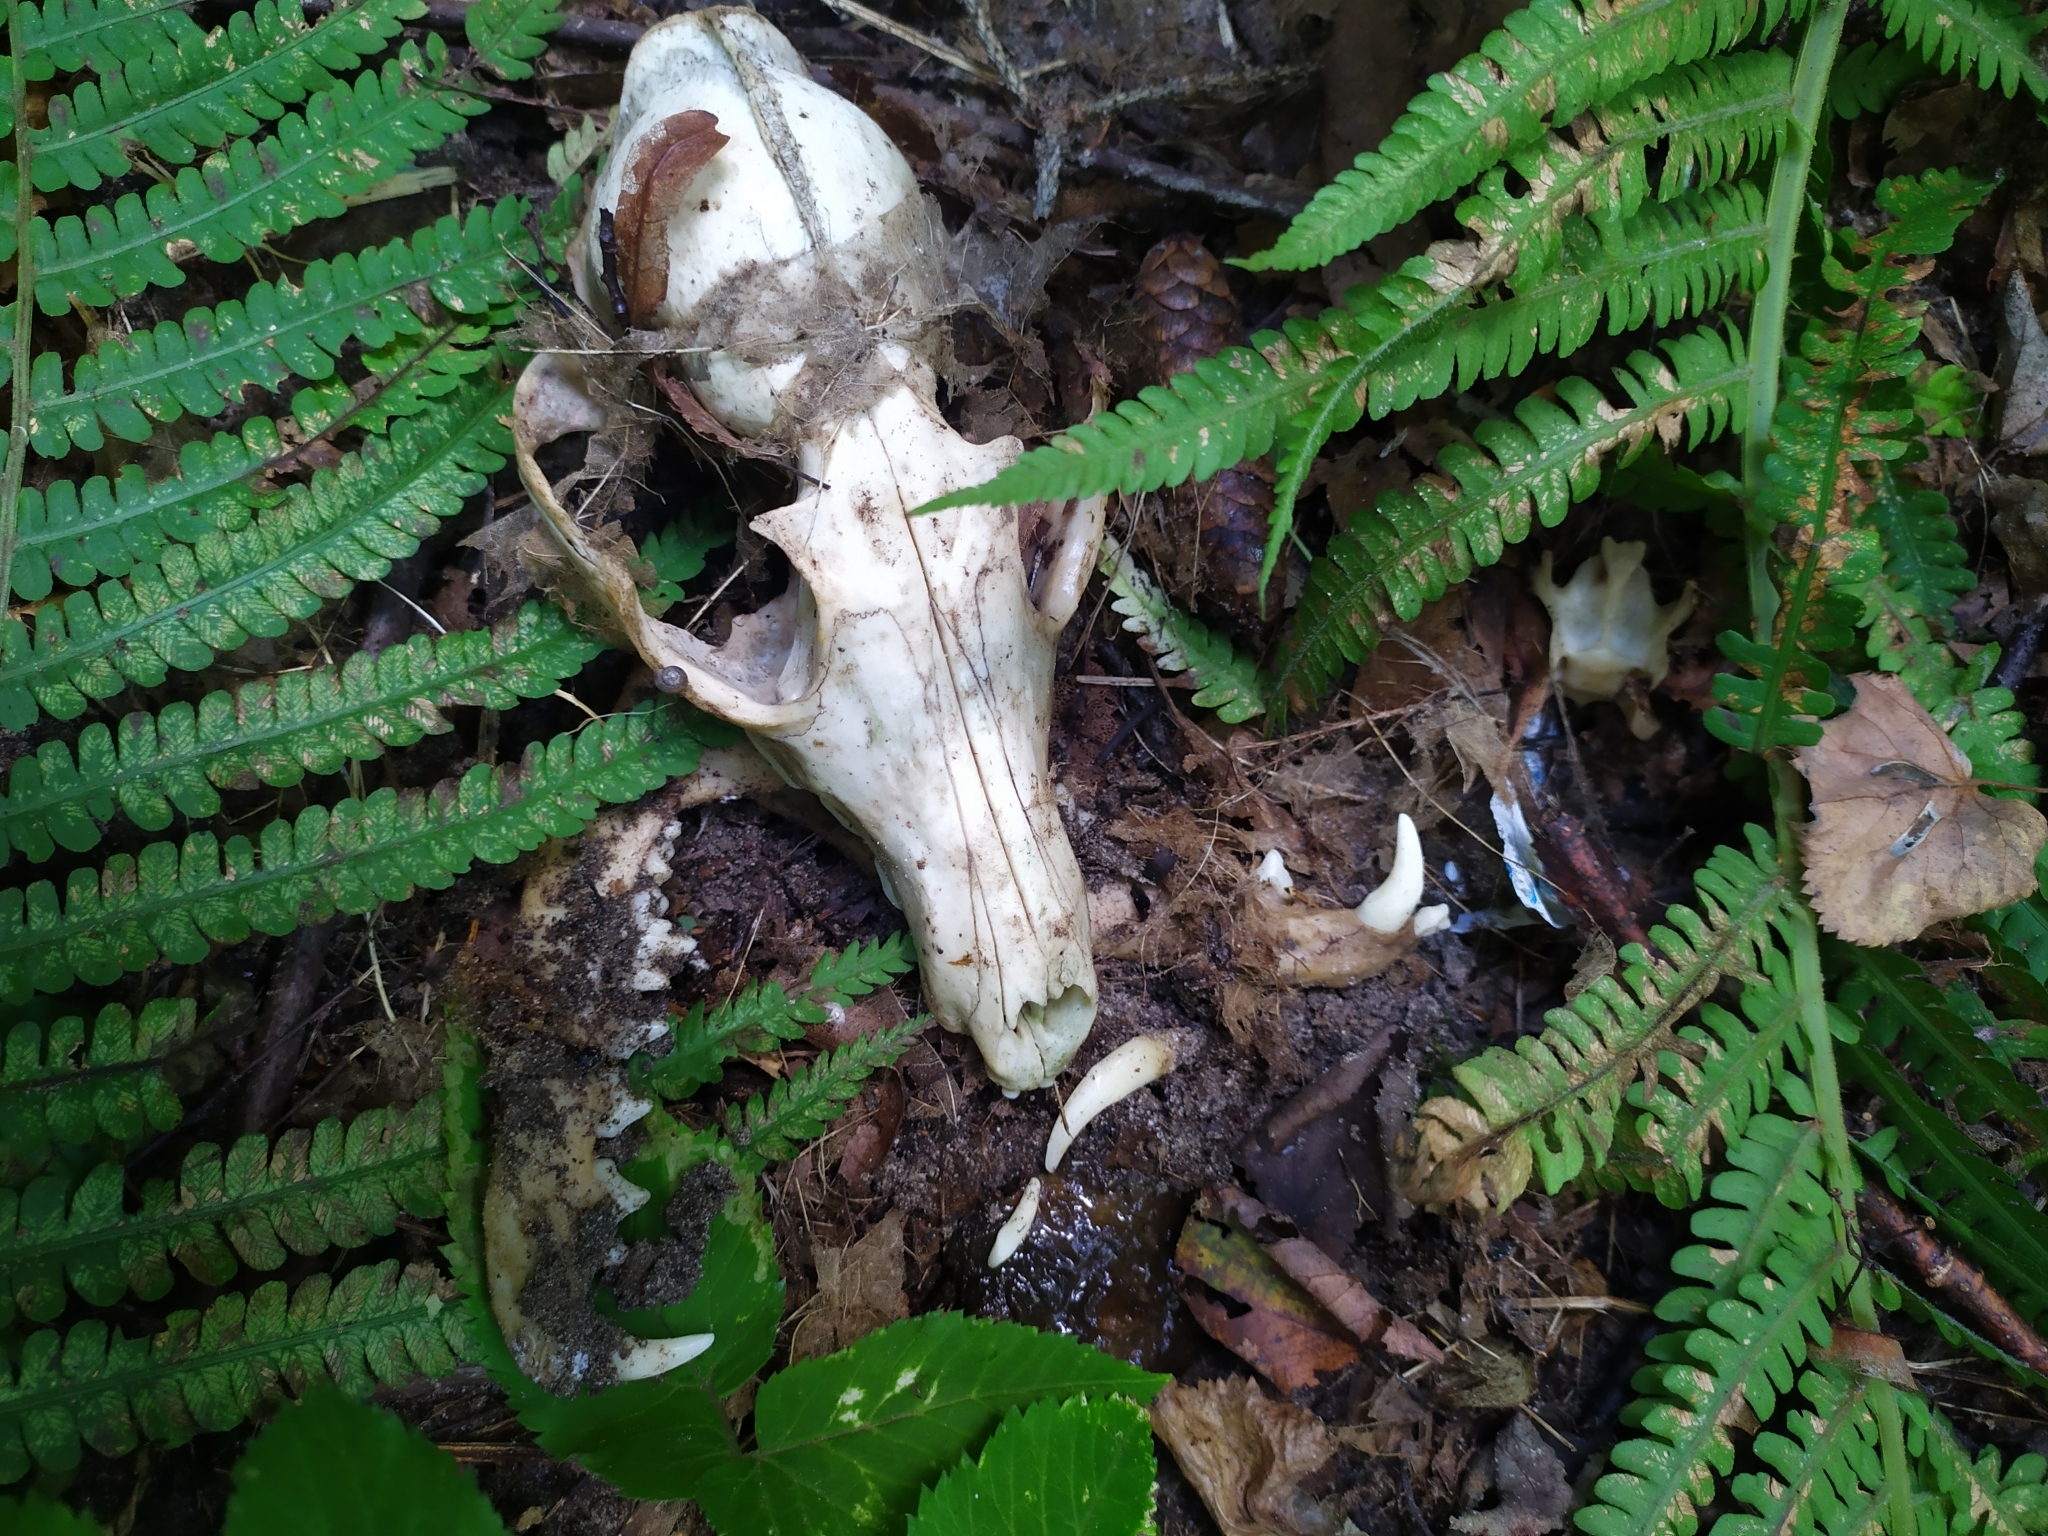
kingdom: Animalia
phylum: Chordata
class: Mammalia
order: Carnivora
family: Canidae
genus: Vulpes
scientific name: Vulpes vulpes
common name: Red fox
